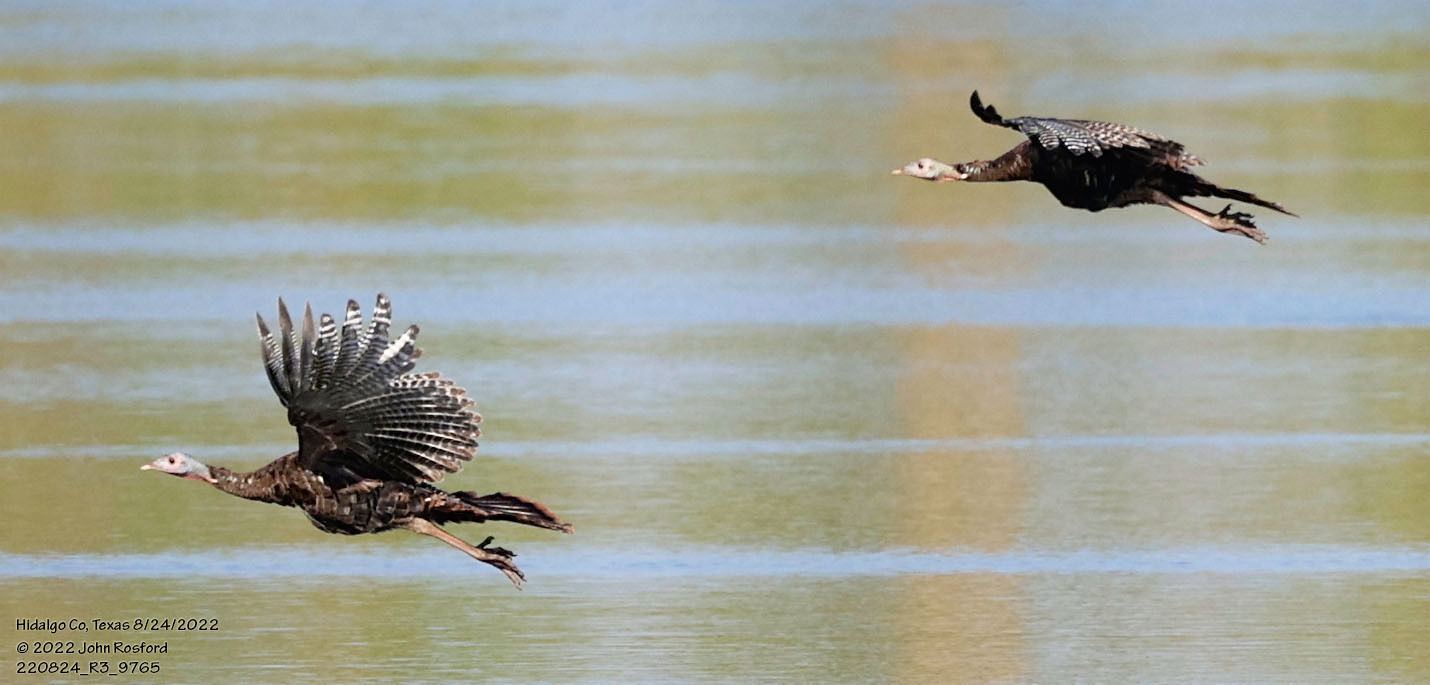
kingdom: Animalia
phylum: Chordata
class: Aves
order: Galliformes
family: Phasianidae
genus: Meleagris
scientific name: Meleagris gallopavo
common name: Wild turkey
